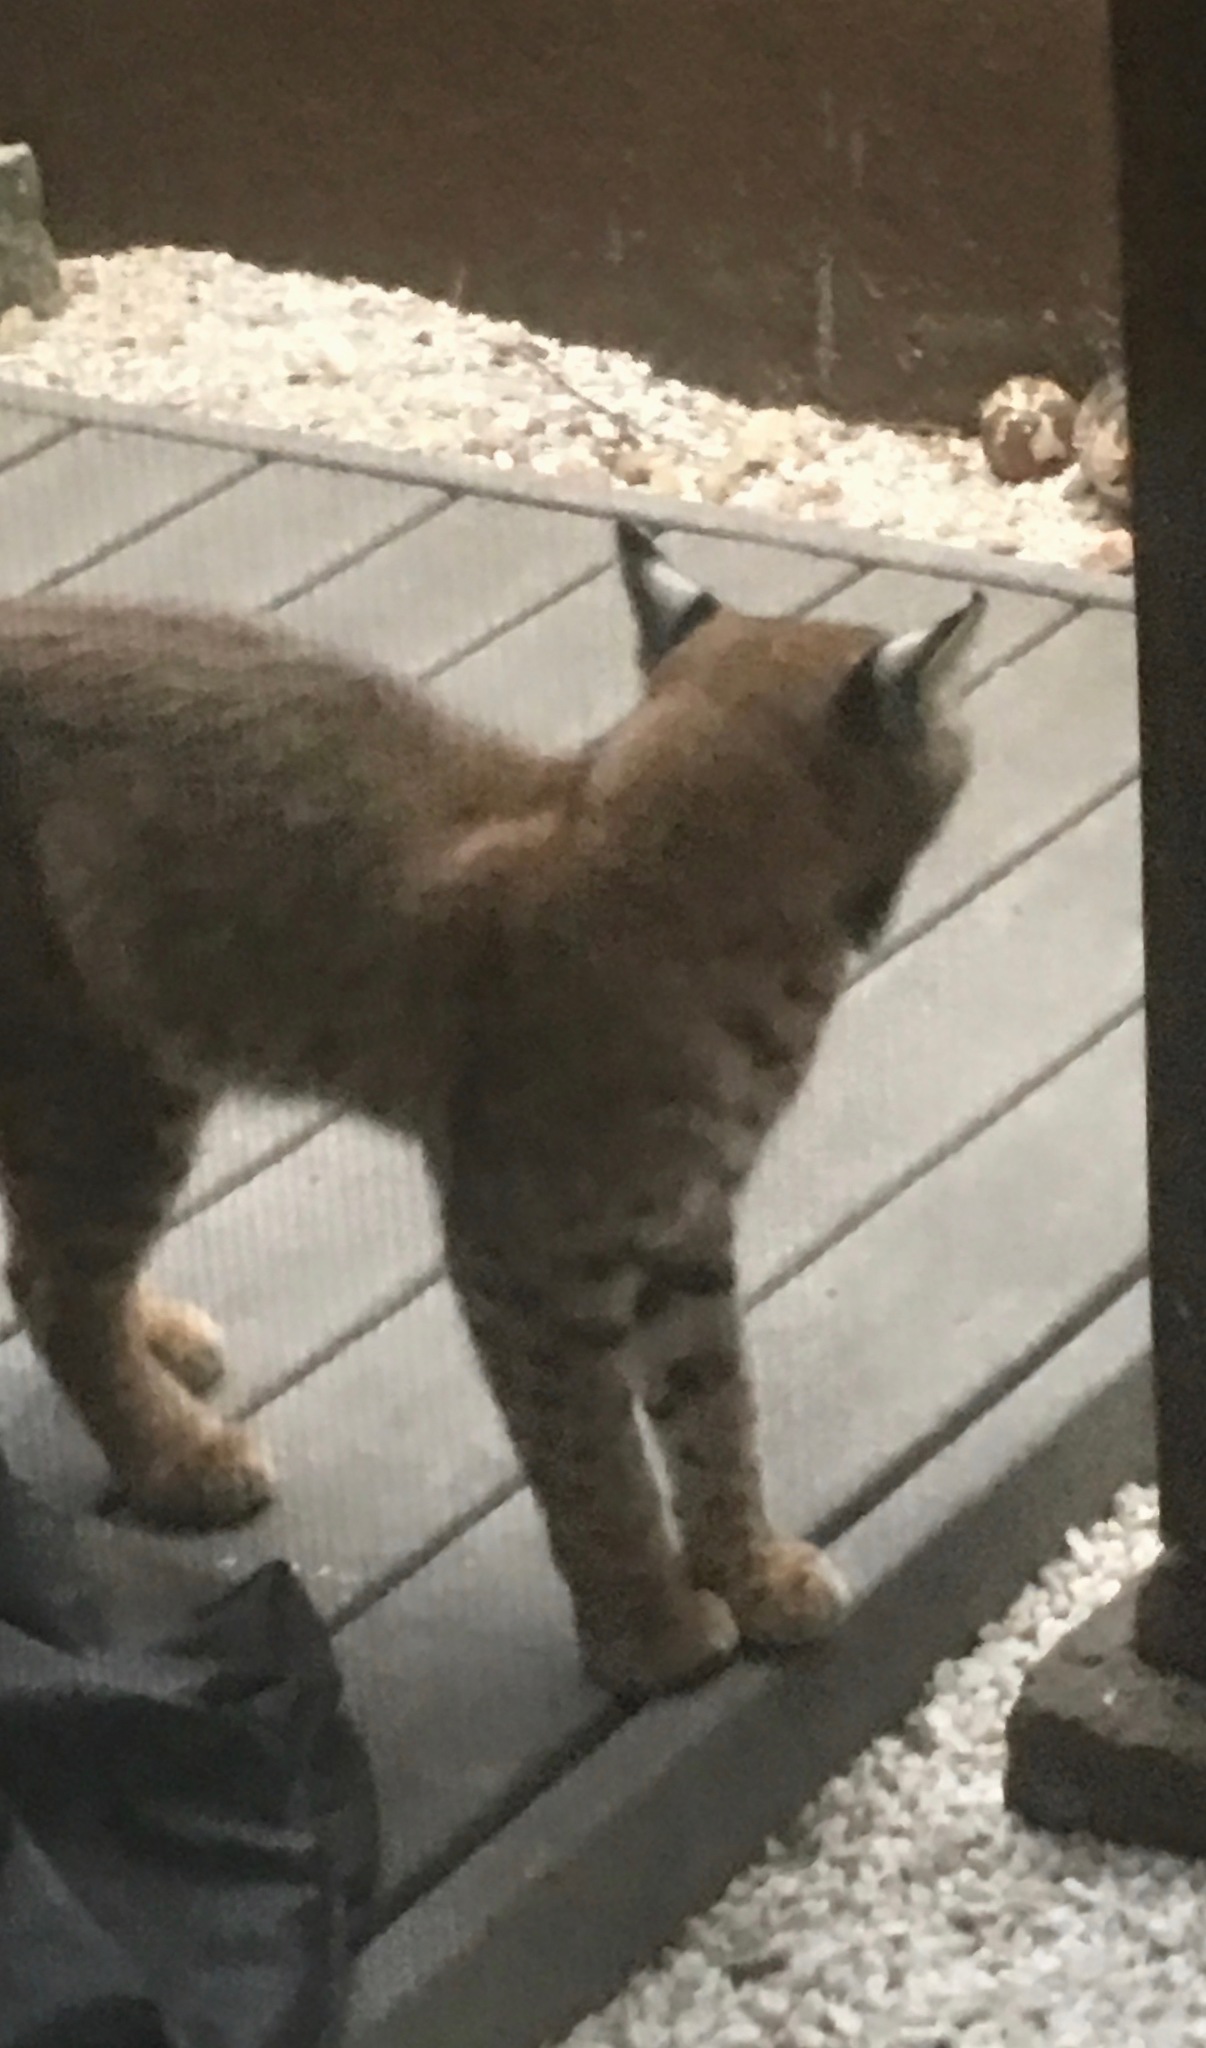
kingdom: Animalia
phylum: Chordata
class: Mammalia
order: Carnivora
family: Felidae
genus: Lynx
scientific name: Lynx rufus
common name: Bobcat
